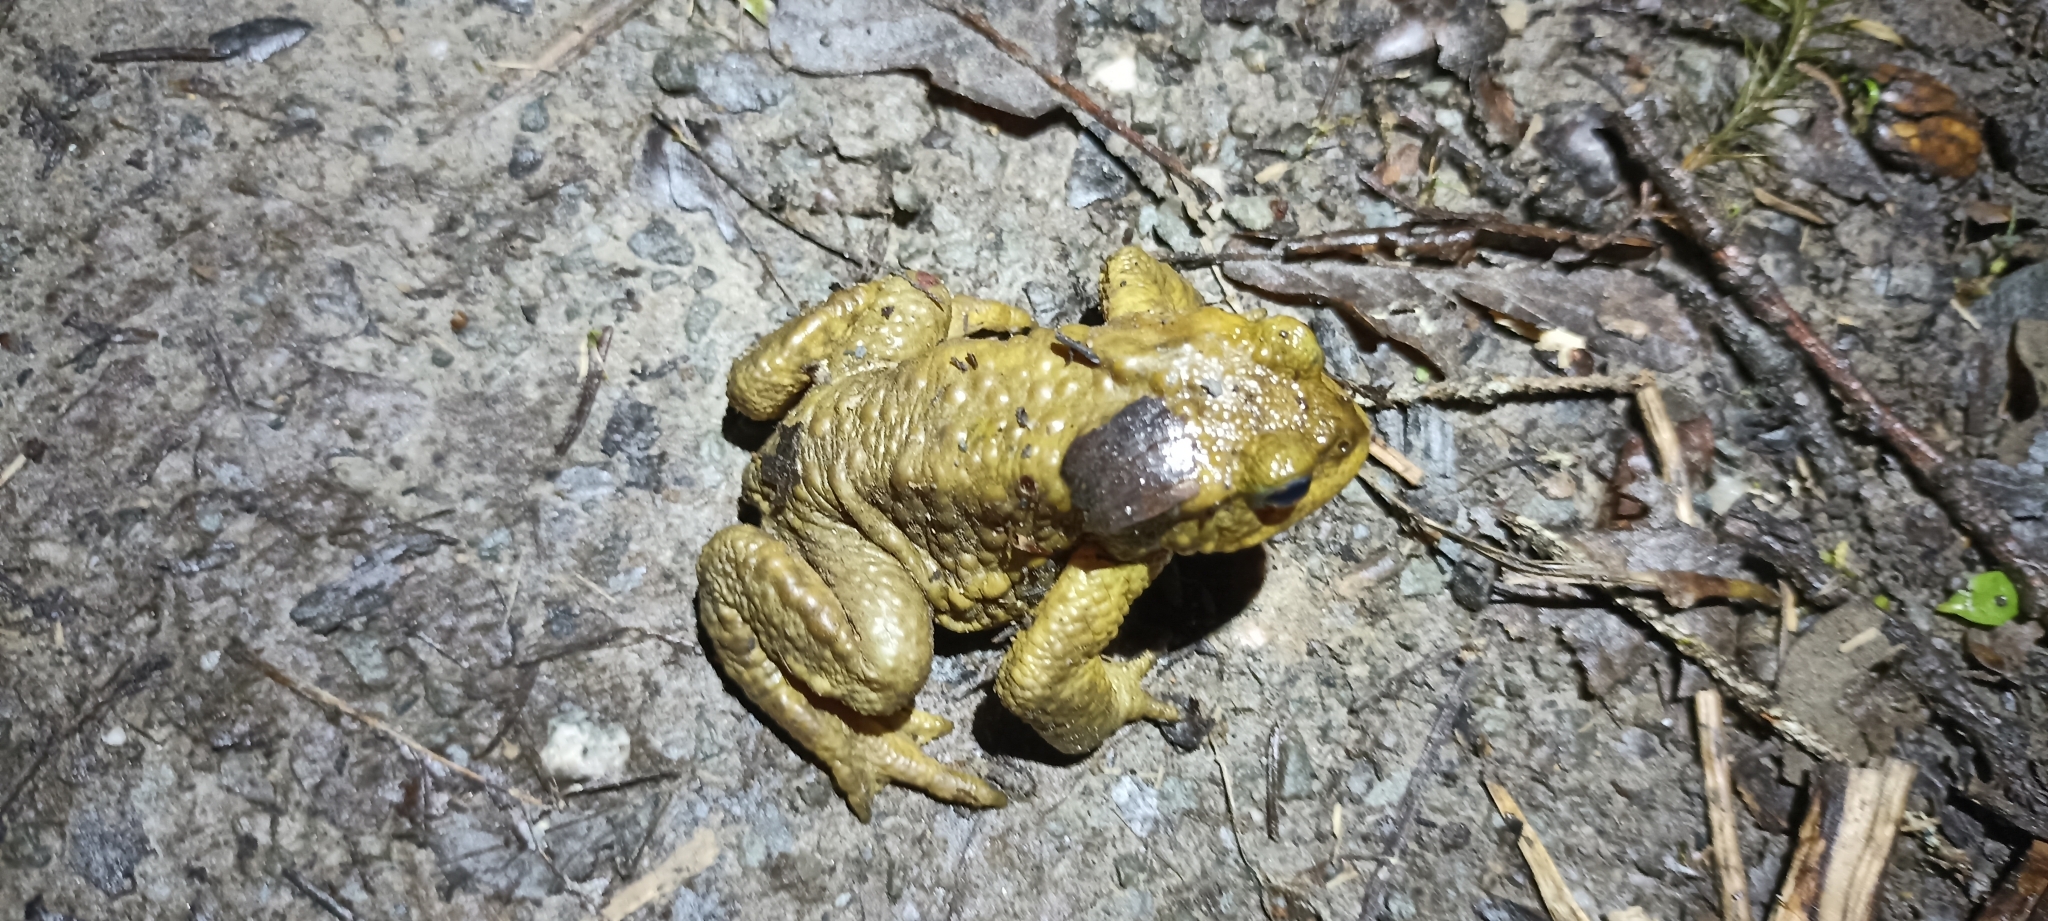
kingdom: Animalia
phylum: Chordata
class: Amphibia
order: Anura
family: Bufonidae
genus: Bufo
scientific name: Bufo spinosus
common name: Western common toad
